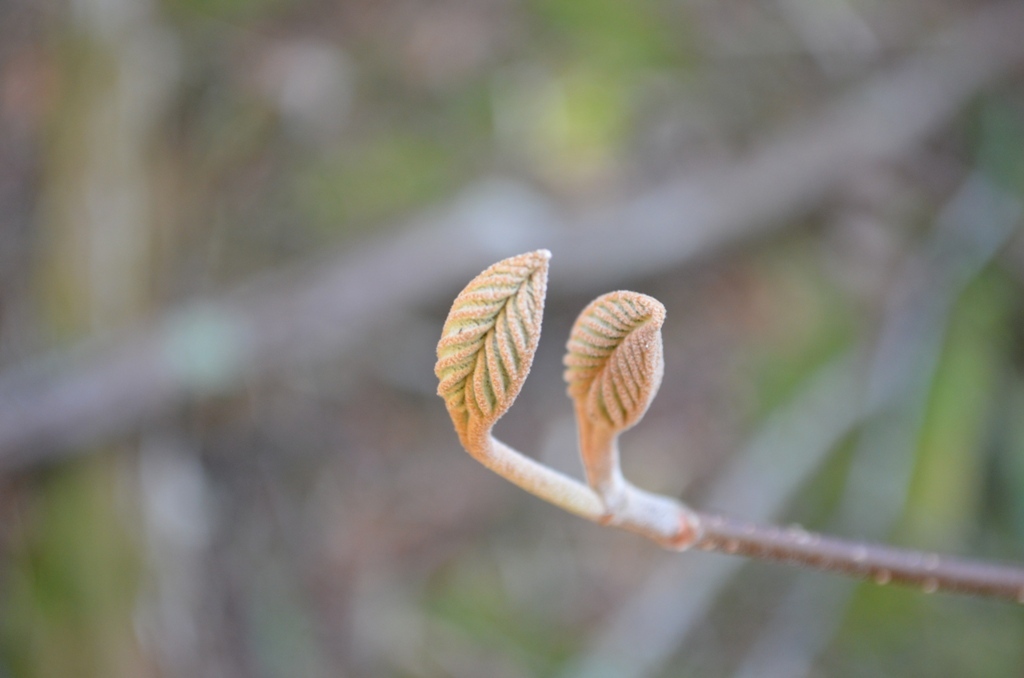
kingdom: Plantae
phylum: Tracheophyta
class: Magnoliopsida
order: Dipsacales
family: Viburnaceae
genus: Viburnum
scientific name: Viburnum lantanoides
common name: Hobblebush
